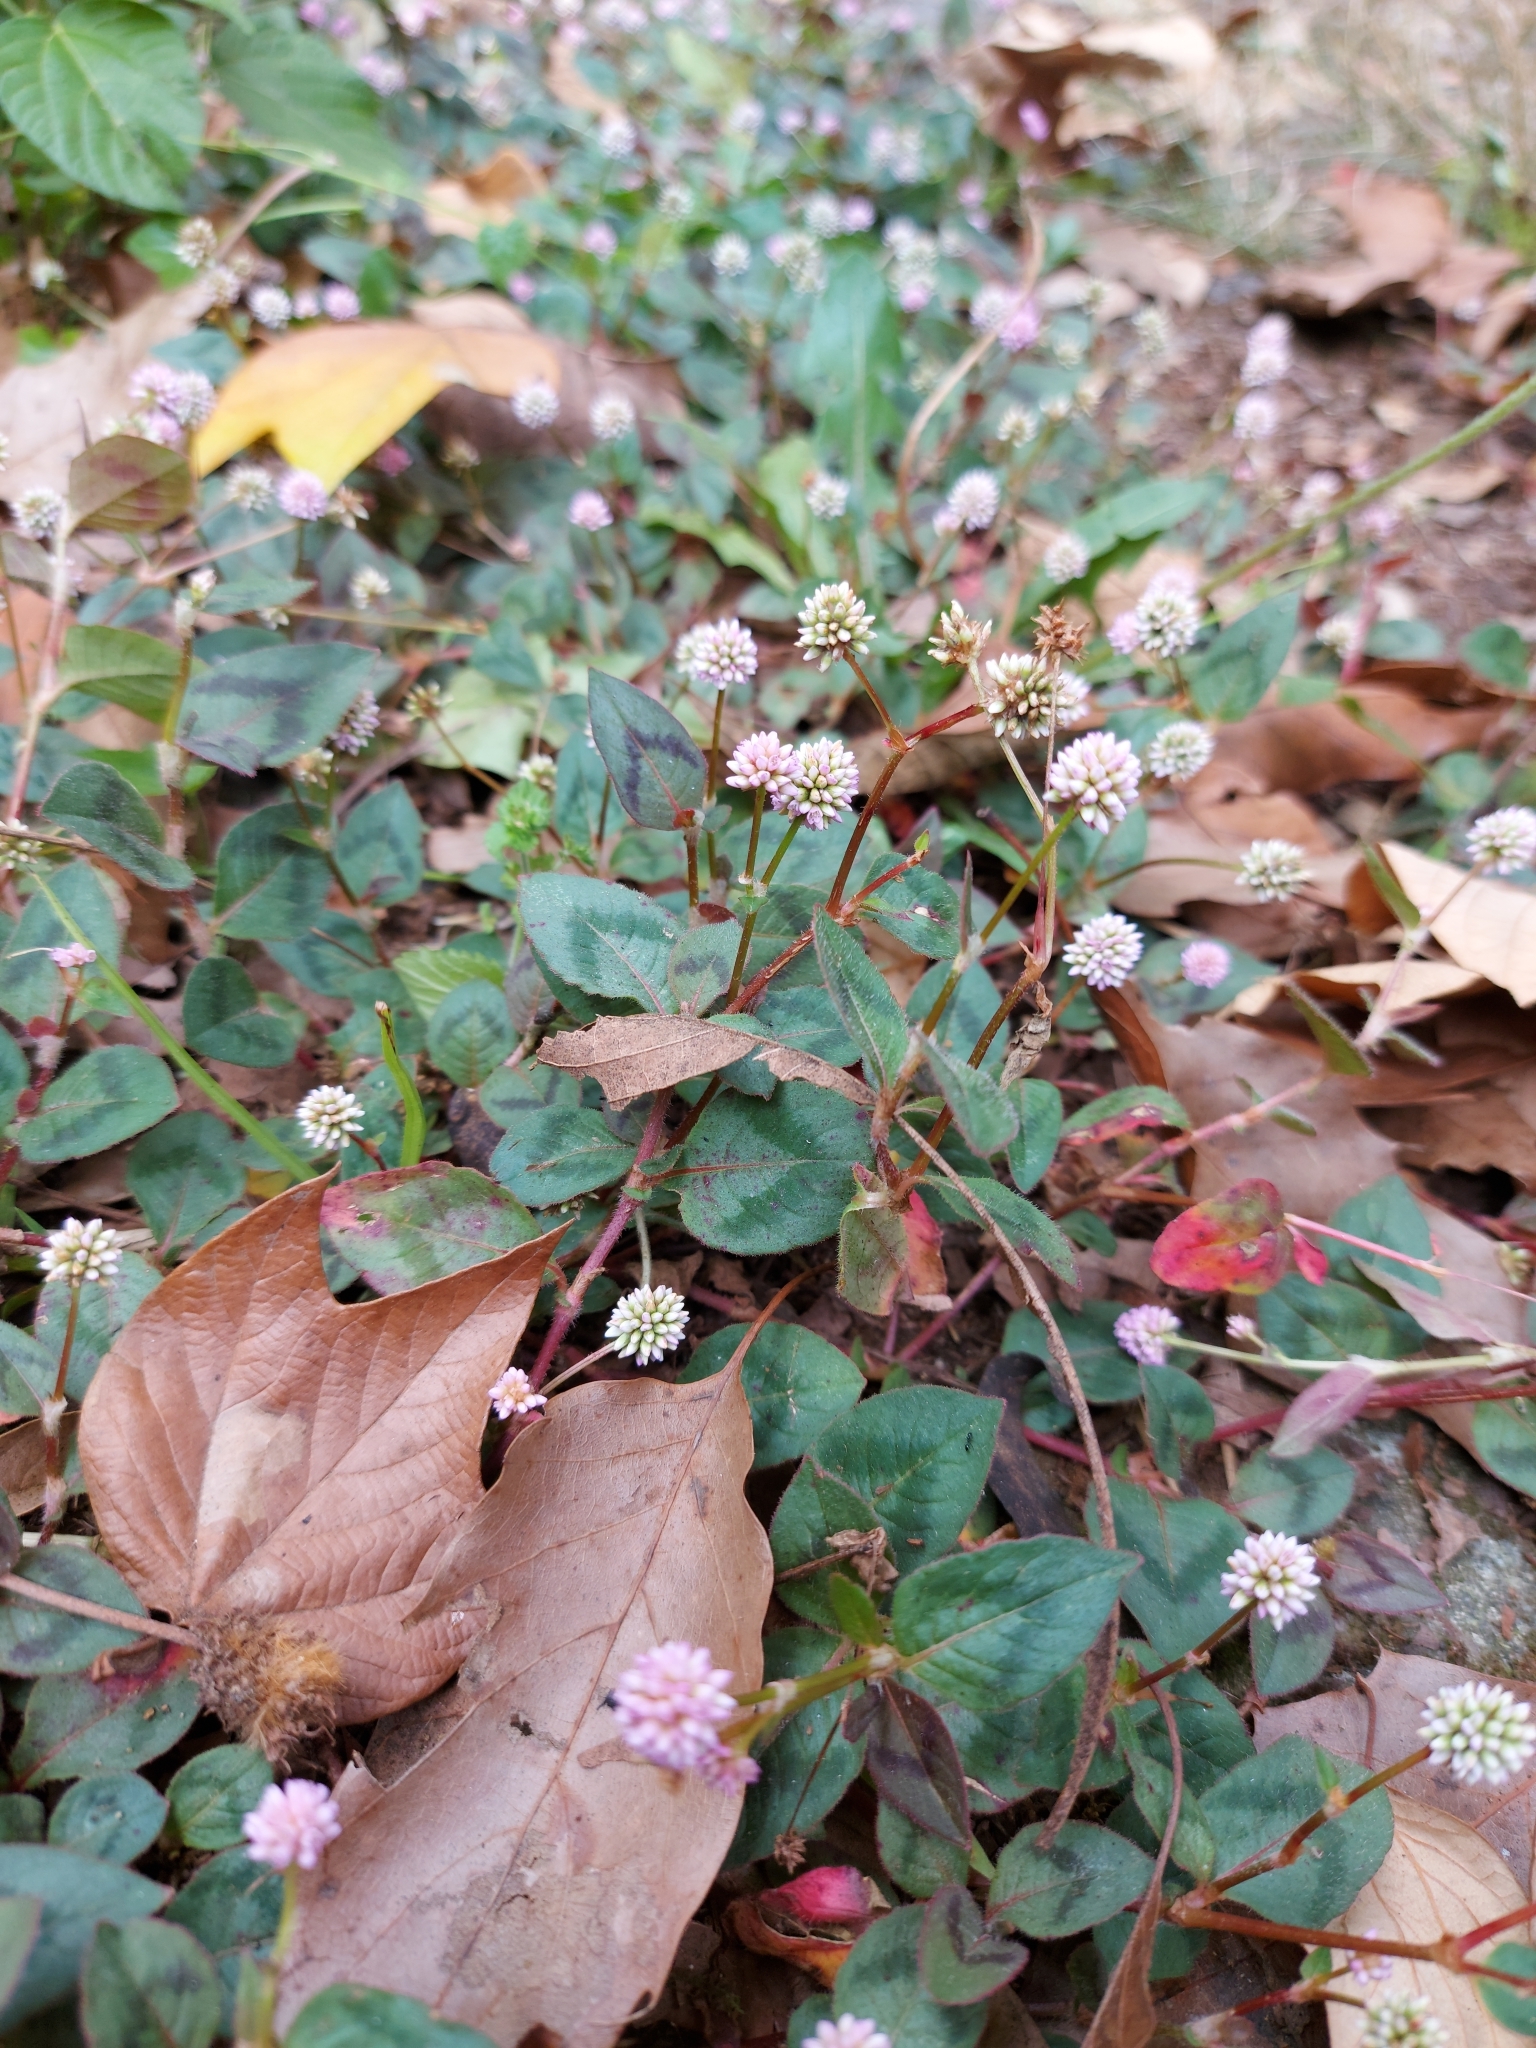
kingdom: Plantae
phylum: Tracheophyta
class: Magnoliopsida
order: Caryophyllales
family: Polygonaceae
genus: Persicaria
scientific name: Persicaria capitata
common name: Pinkhead smartweed
